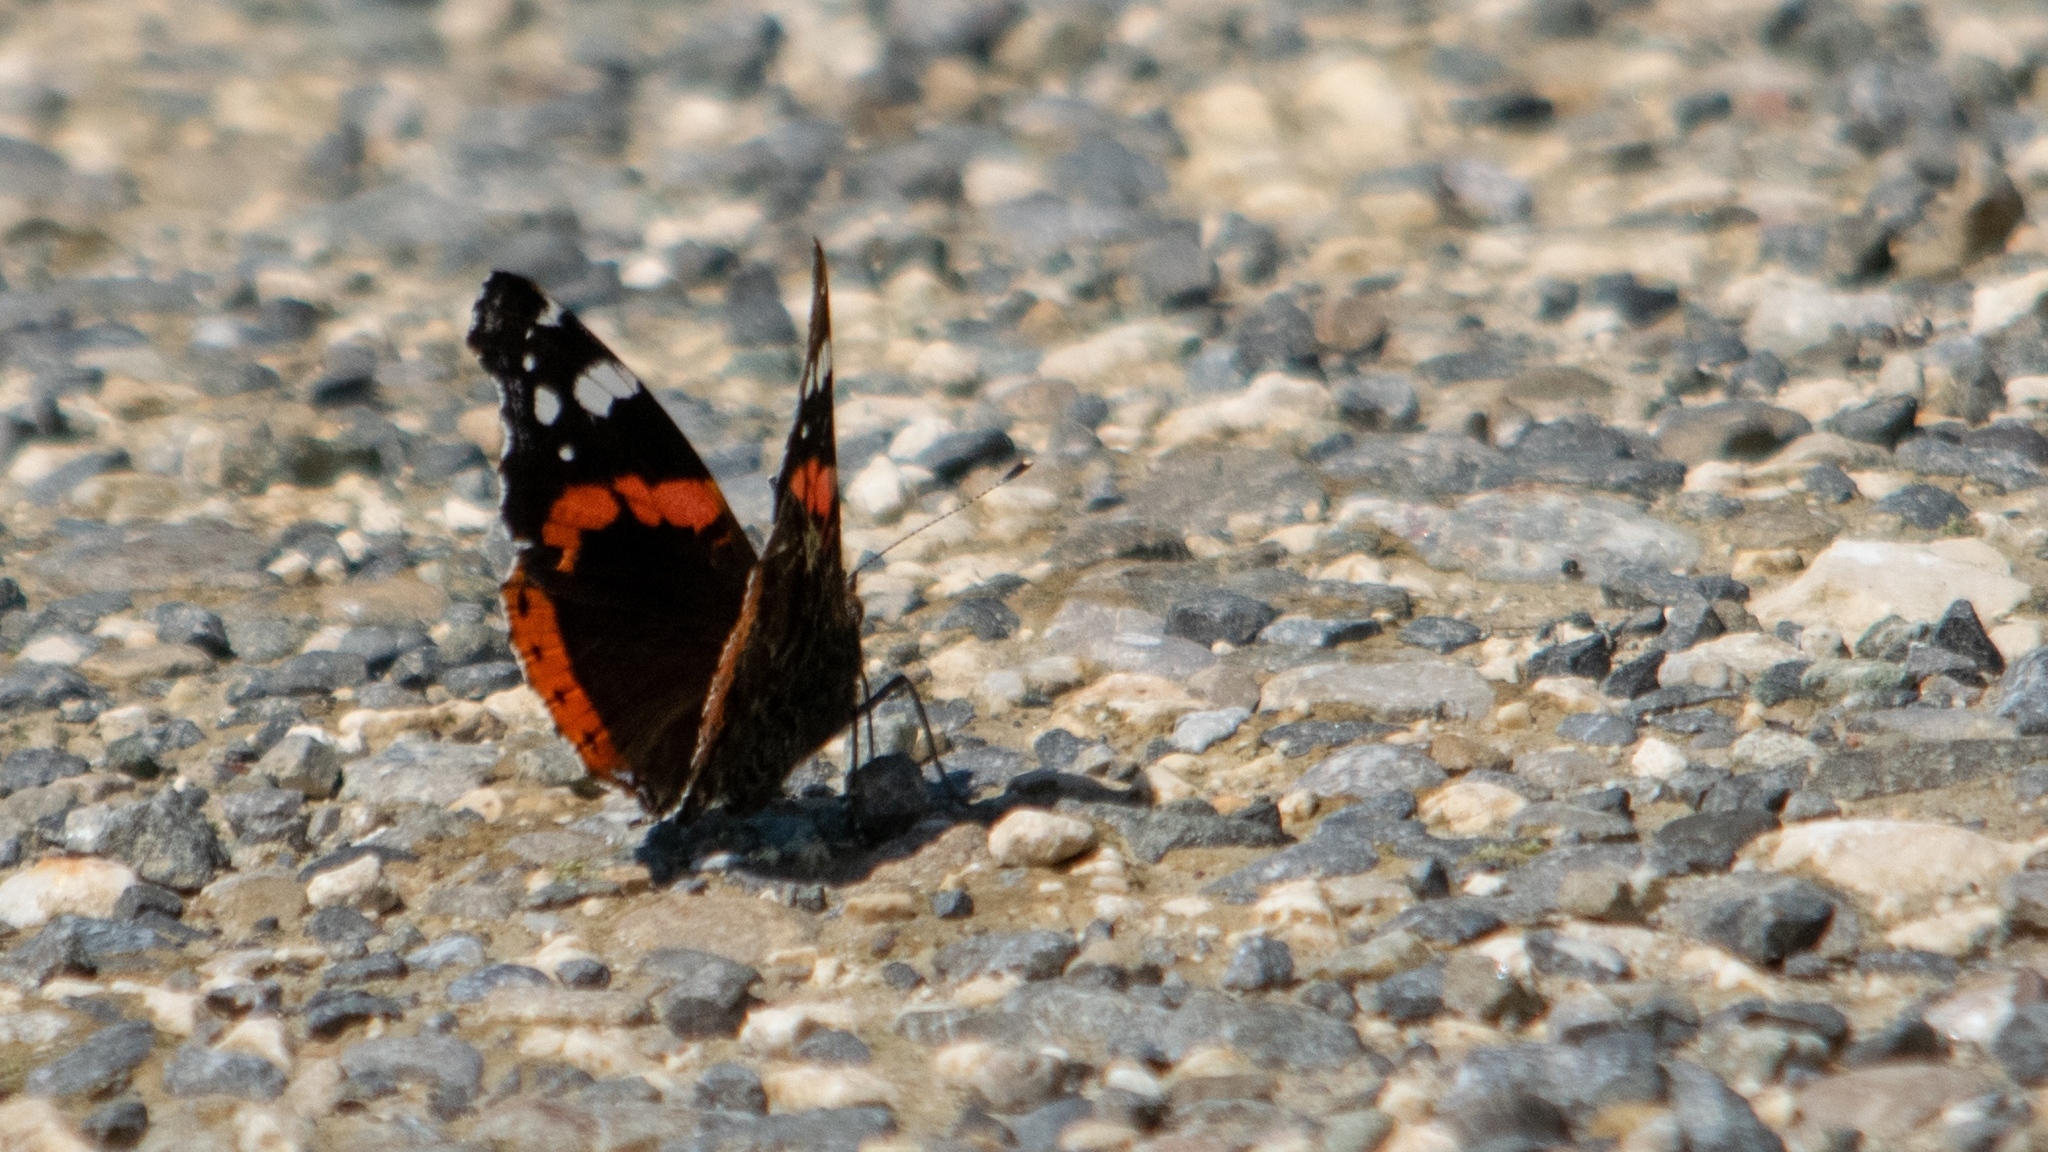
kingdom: Animalia
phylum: Arthropoda
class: Insecta
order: Lepidoptera
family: Nymphalidae
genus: Vanessa
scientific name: Vanessa atalanta
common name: Red admiral
